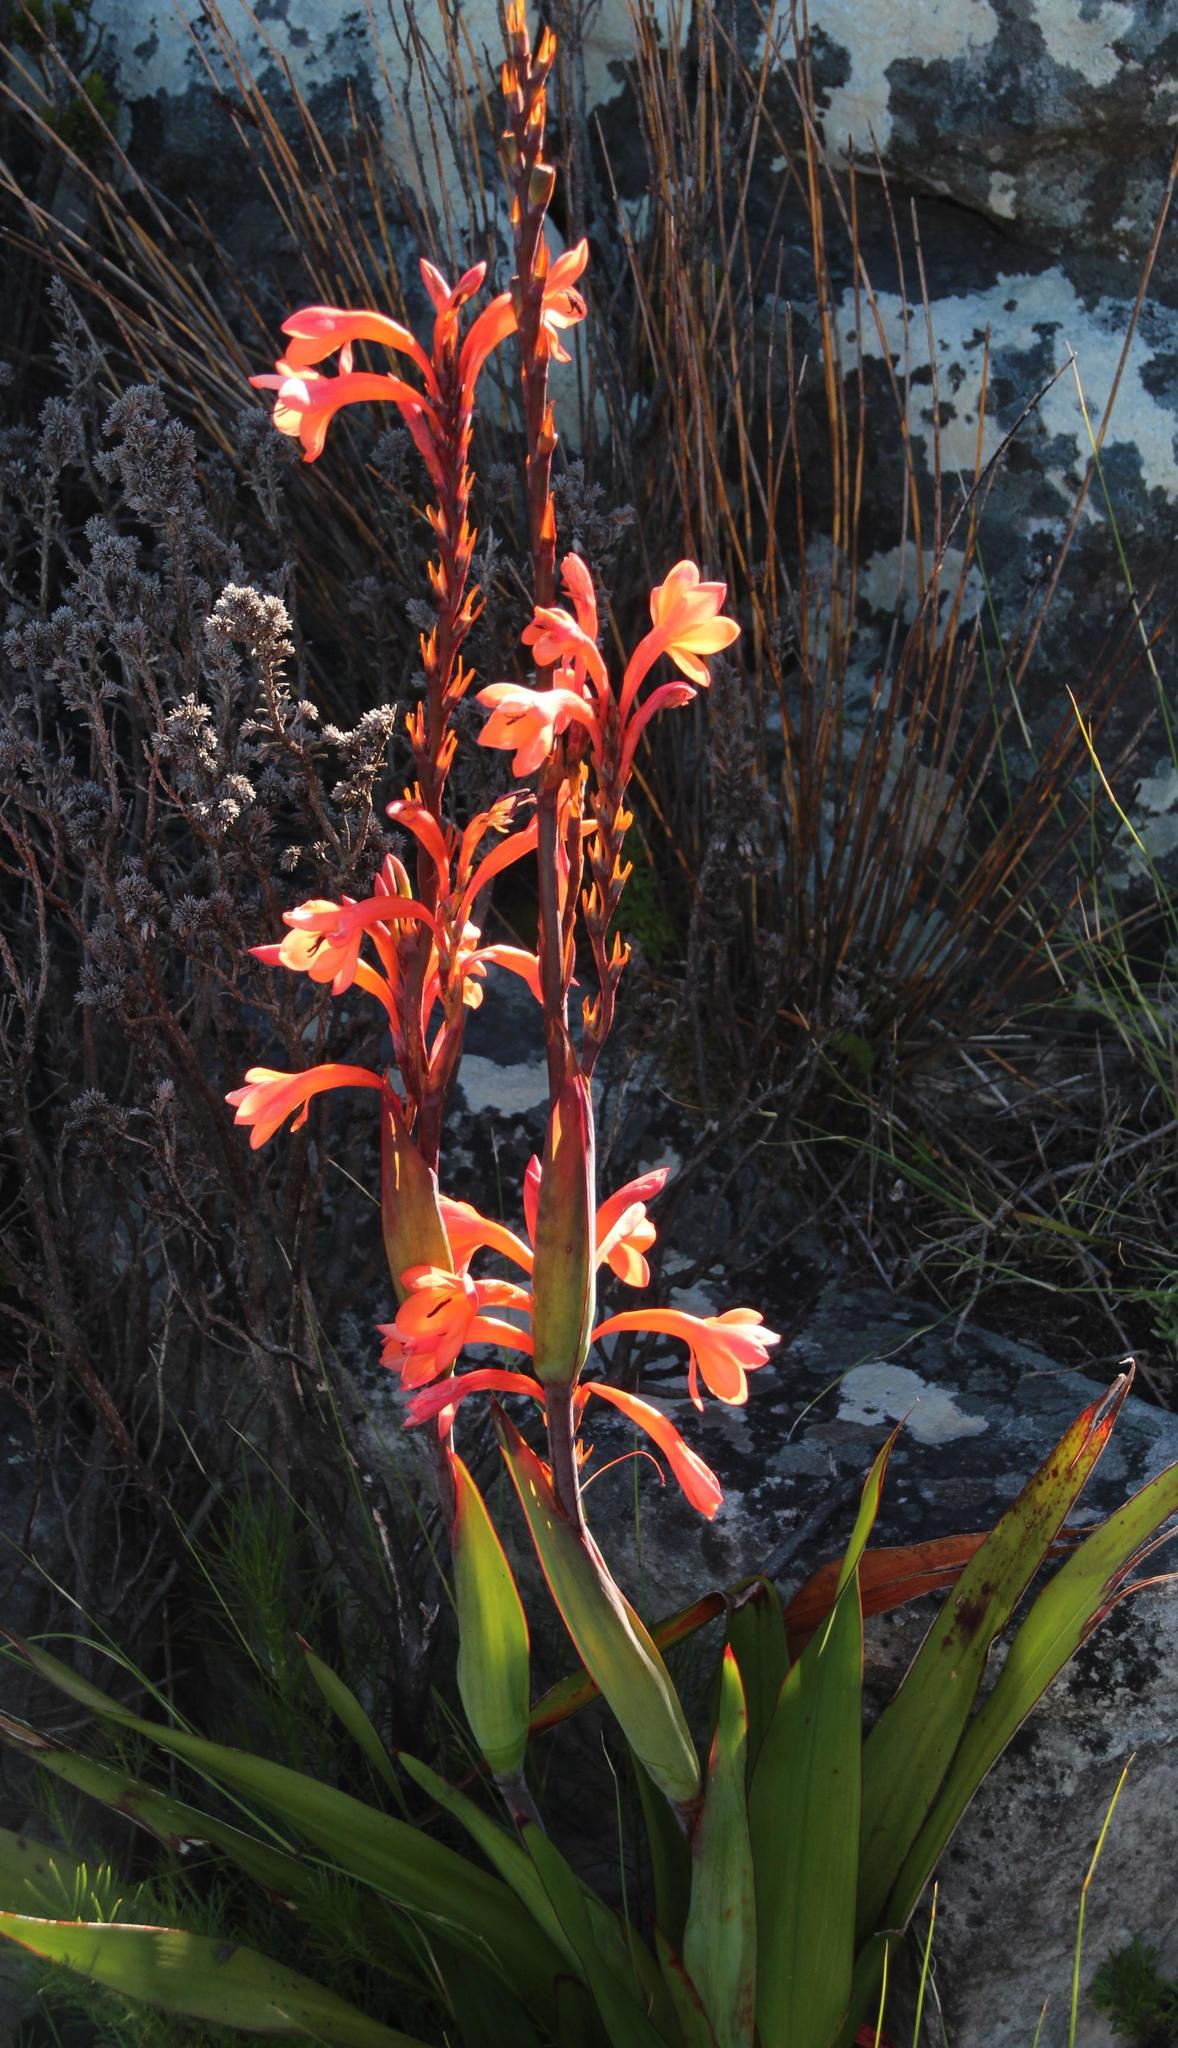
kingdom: Plantae
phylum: Tracheophyta
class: Liliopsida
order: Asparagales
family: Iridaceae
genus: Watsonia
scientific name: Watsonia tabularis
